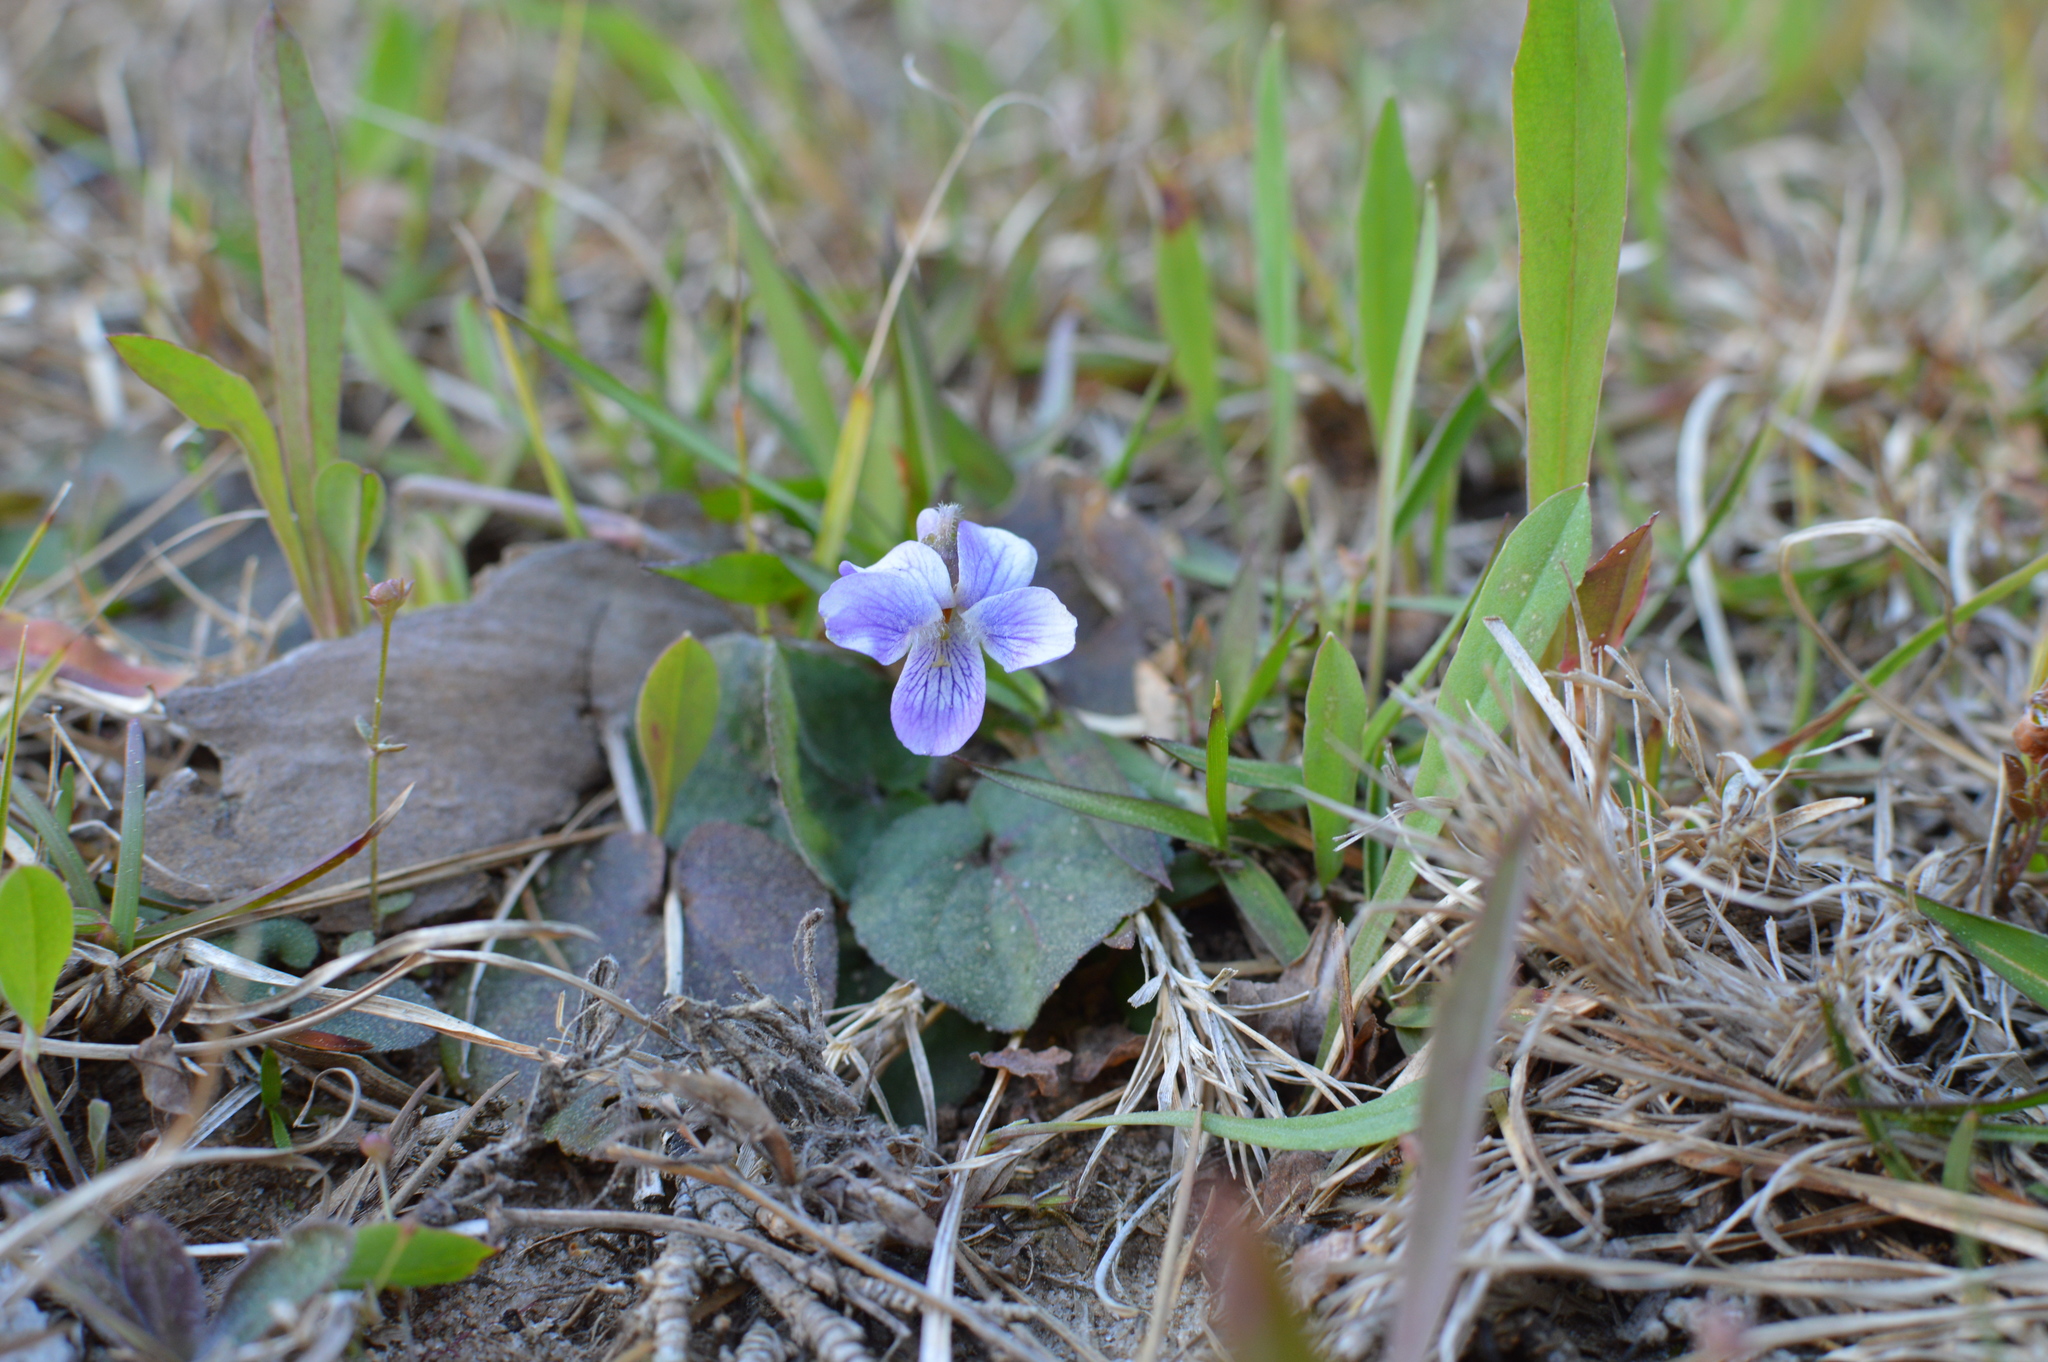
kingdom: Plantae
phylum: Tracheophyta
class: Magnoliopsida
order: Malpighiales
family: Violaceae
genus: Viola
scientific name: Viola villosa
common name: Carolina violet
